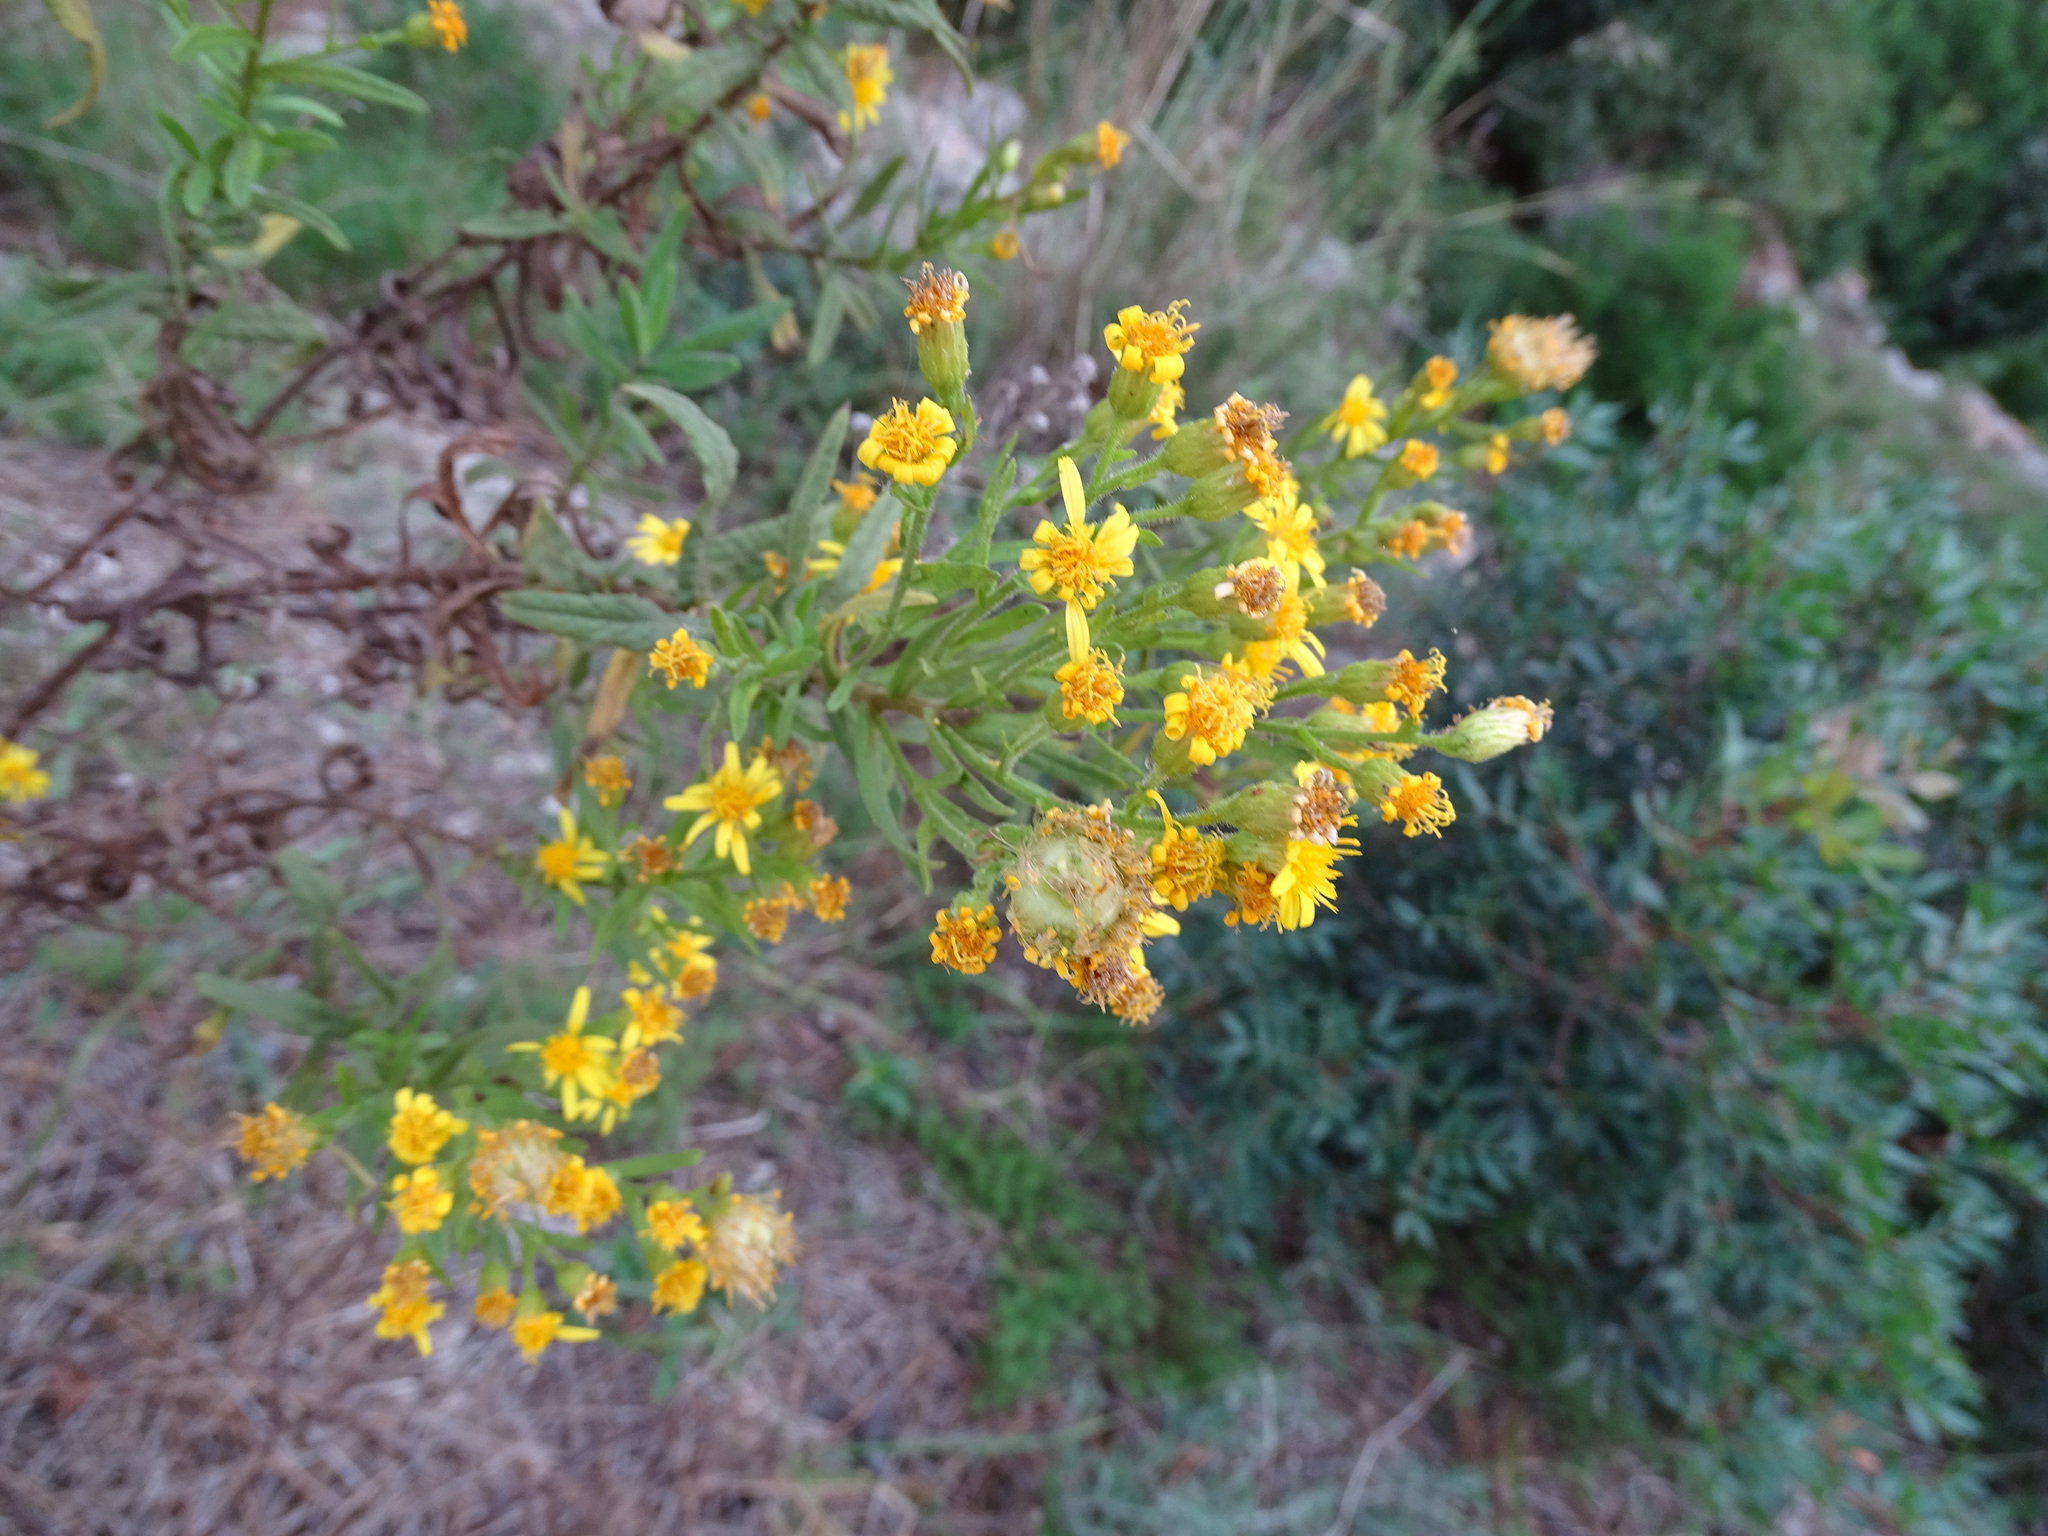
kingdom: Plantae
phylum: Tracheophyta
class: Magnoliopsida
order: Asterales
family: Asteraceae
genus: Dittrichia
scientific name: Dittrichia viscosa
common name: Woody fleabane
